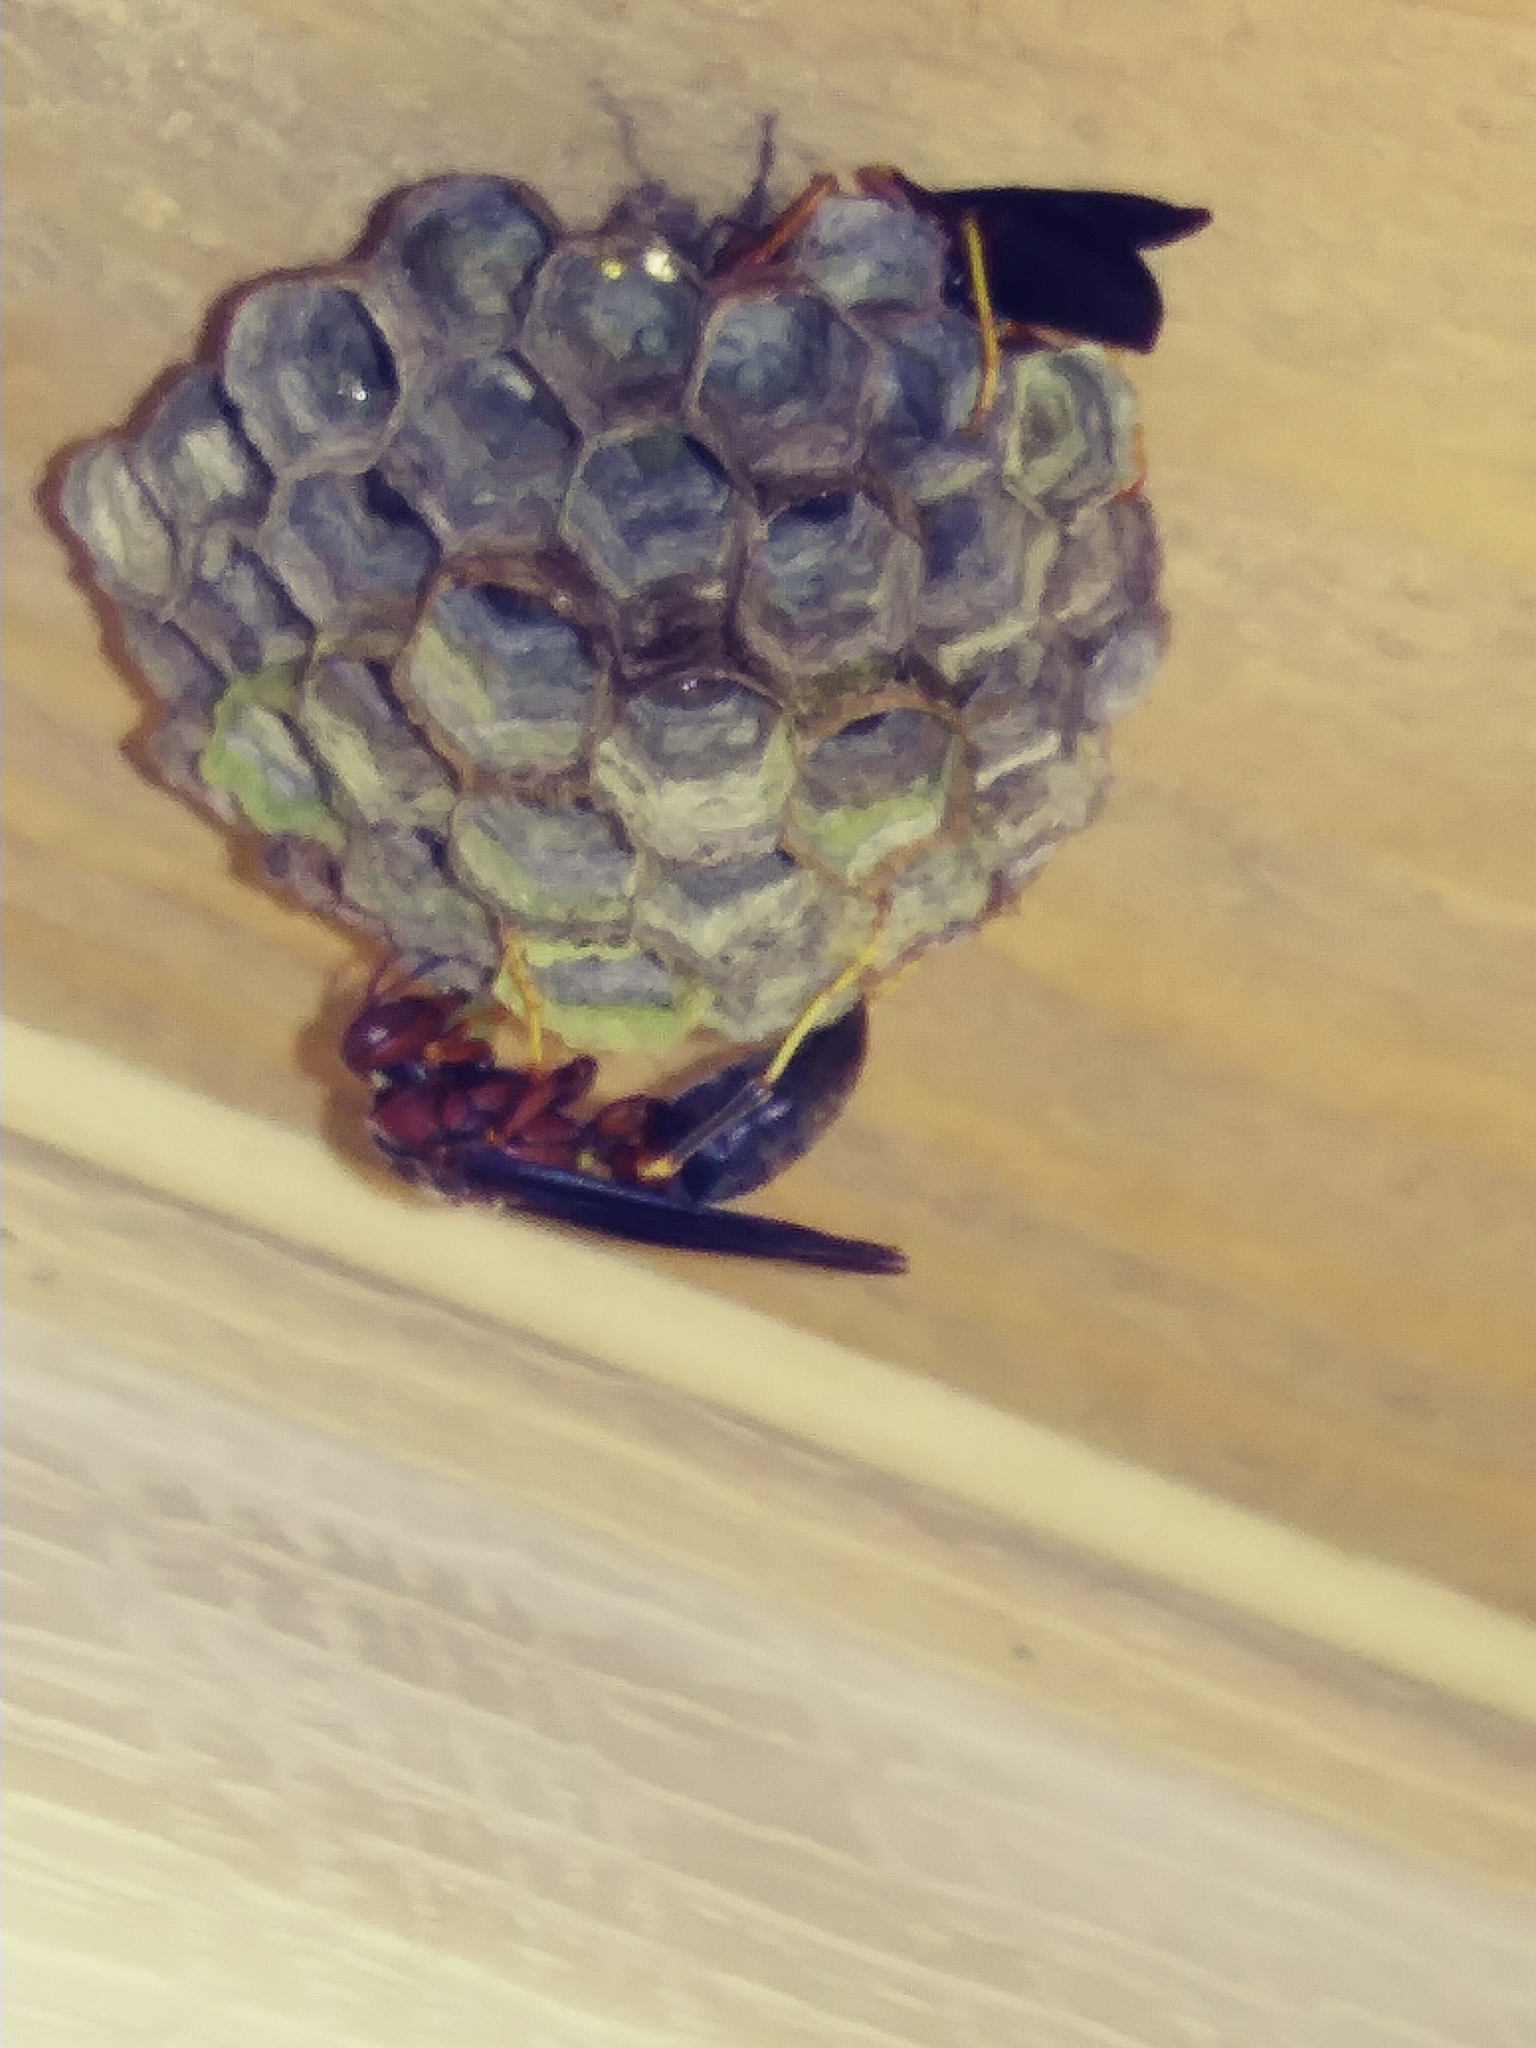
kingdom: Animalia
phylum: Arthropoda
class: Insecta
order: Hymenoptera
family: Eumenidae
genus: Polistes
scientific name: Polistes metricus
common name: Metric paper wasp
